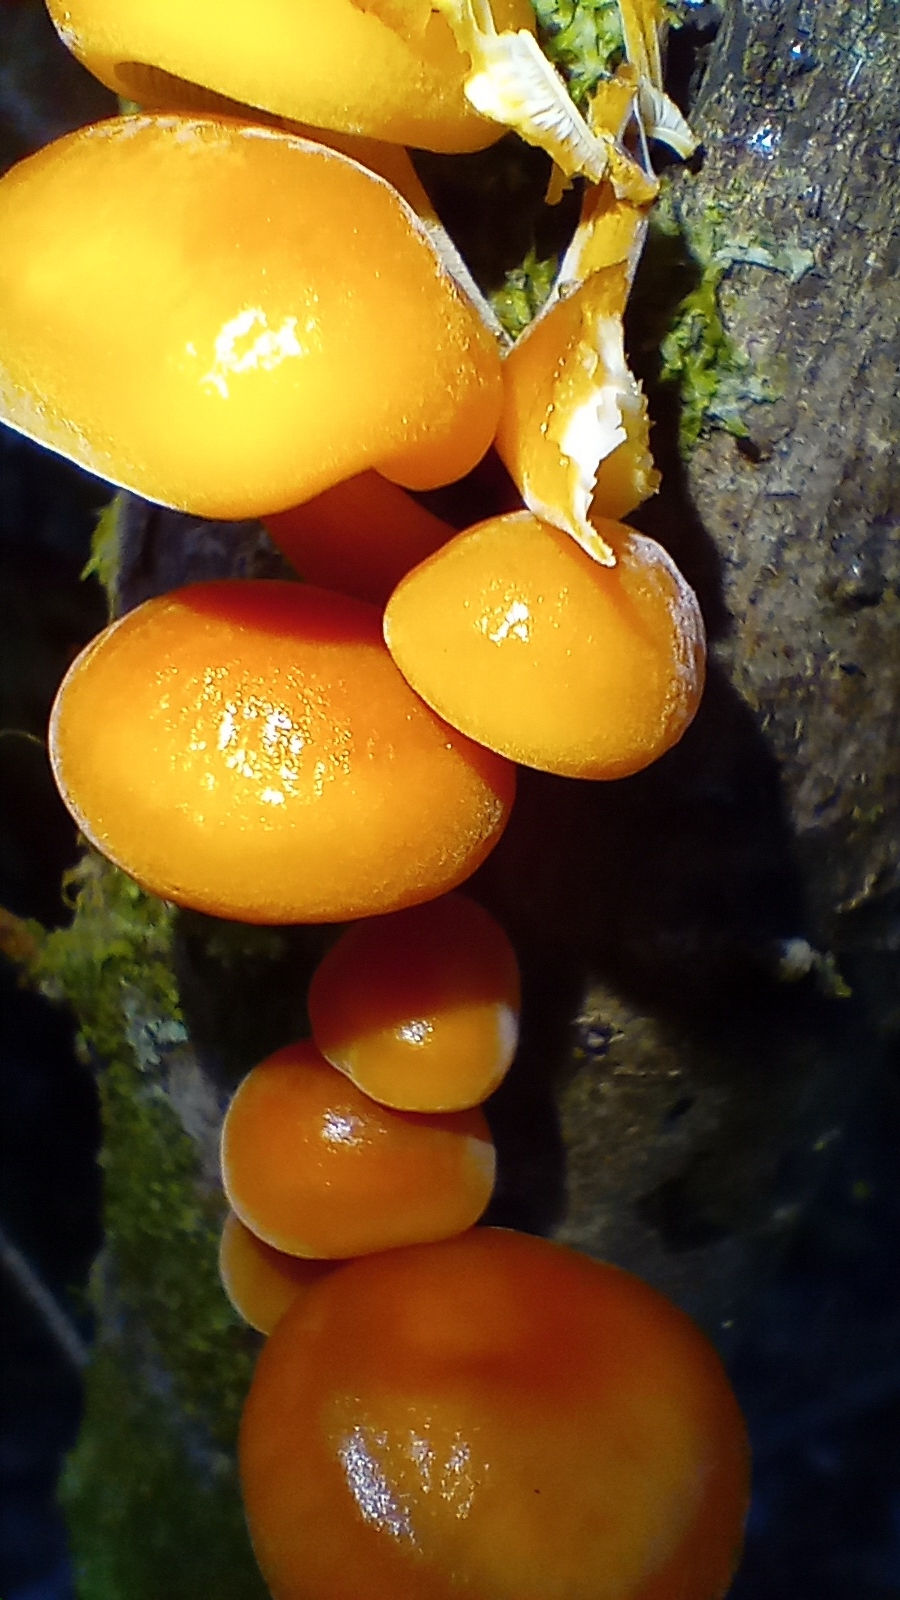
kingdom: Fungi
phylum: Basidiomycota
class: Agaricomycetes
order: Agaricales
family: Physalacriaceae
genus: Flammulina
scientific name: Flammulina
